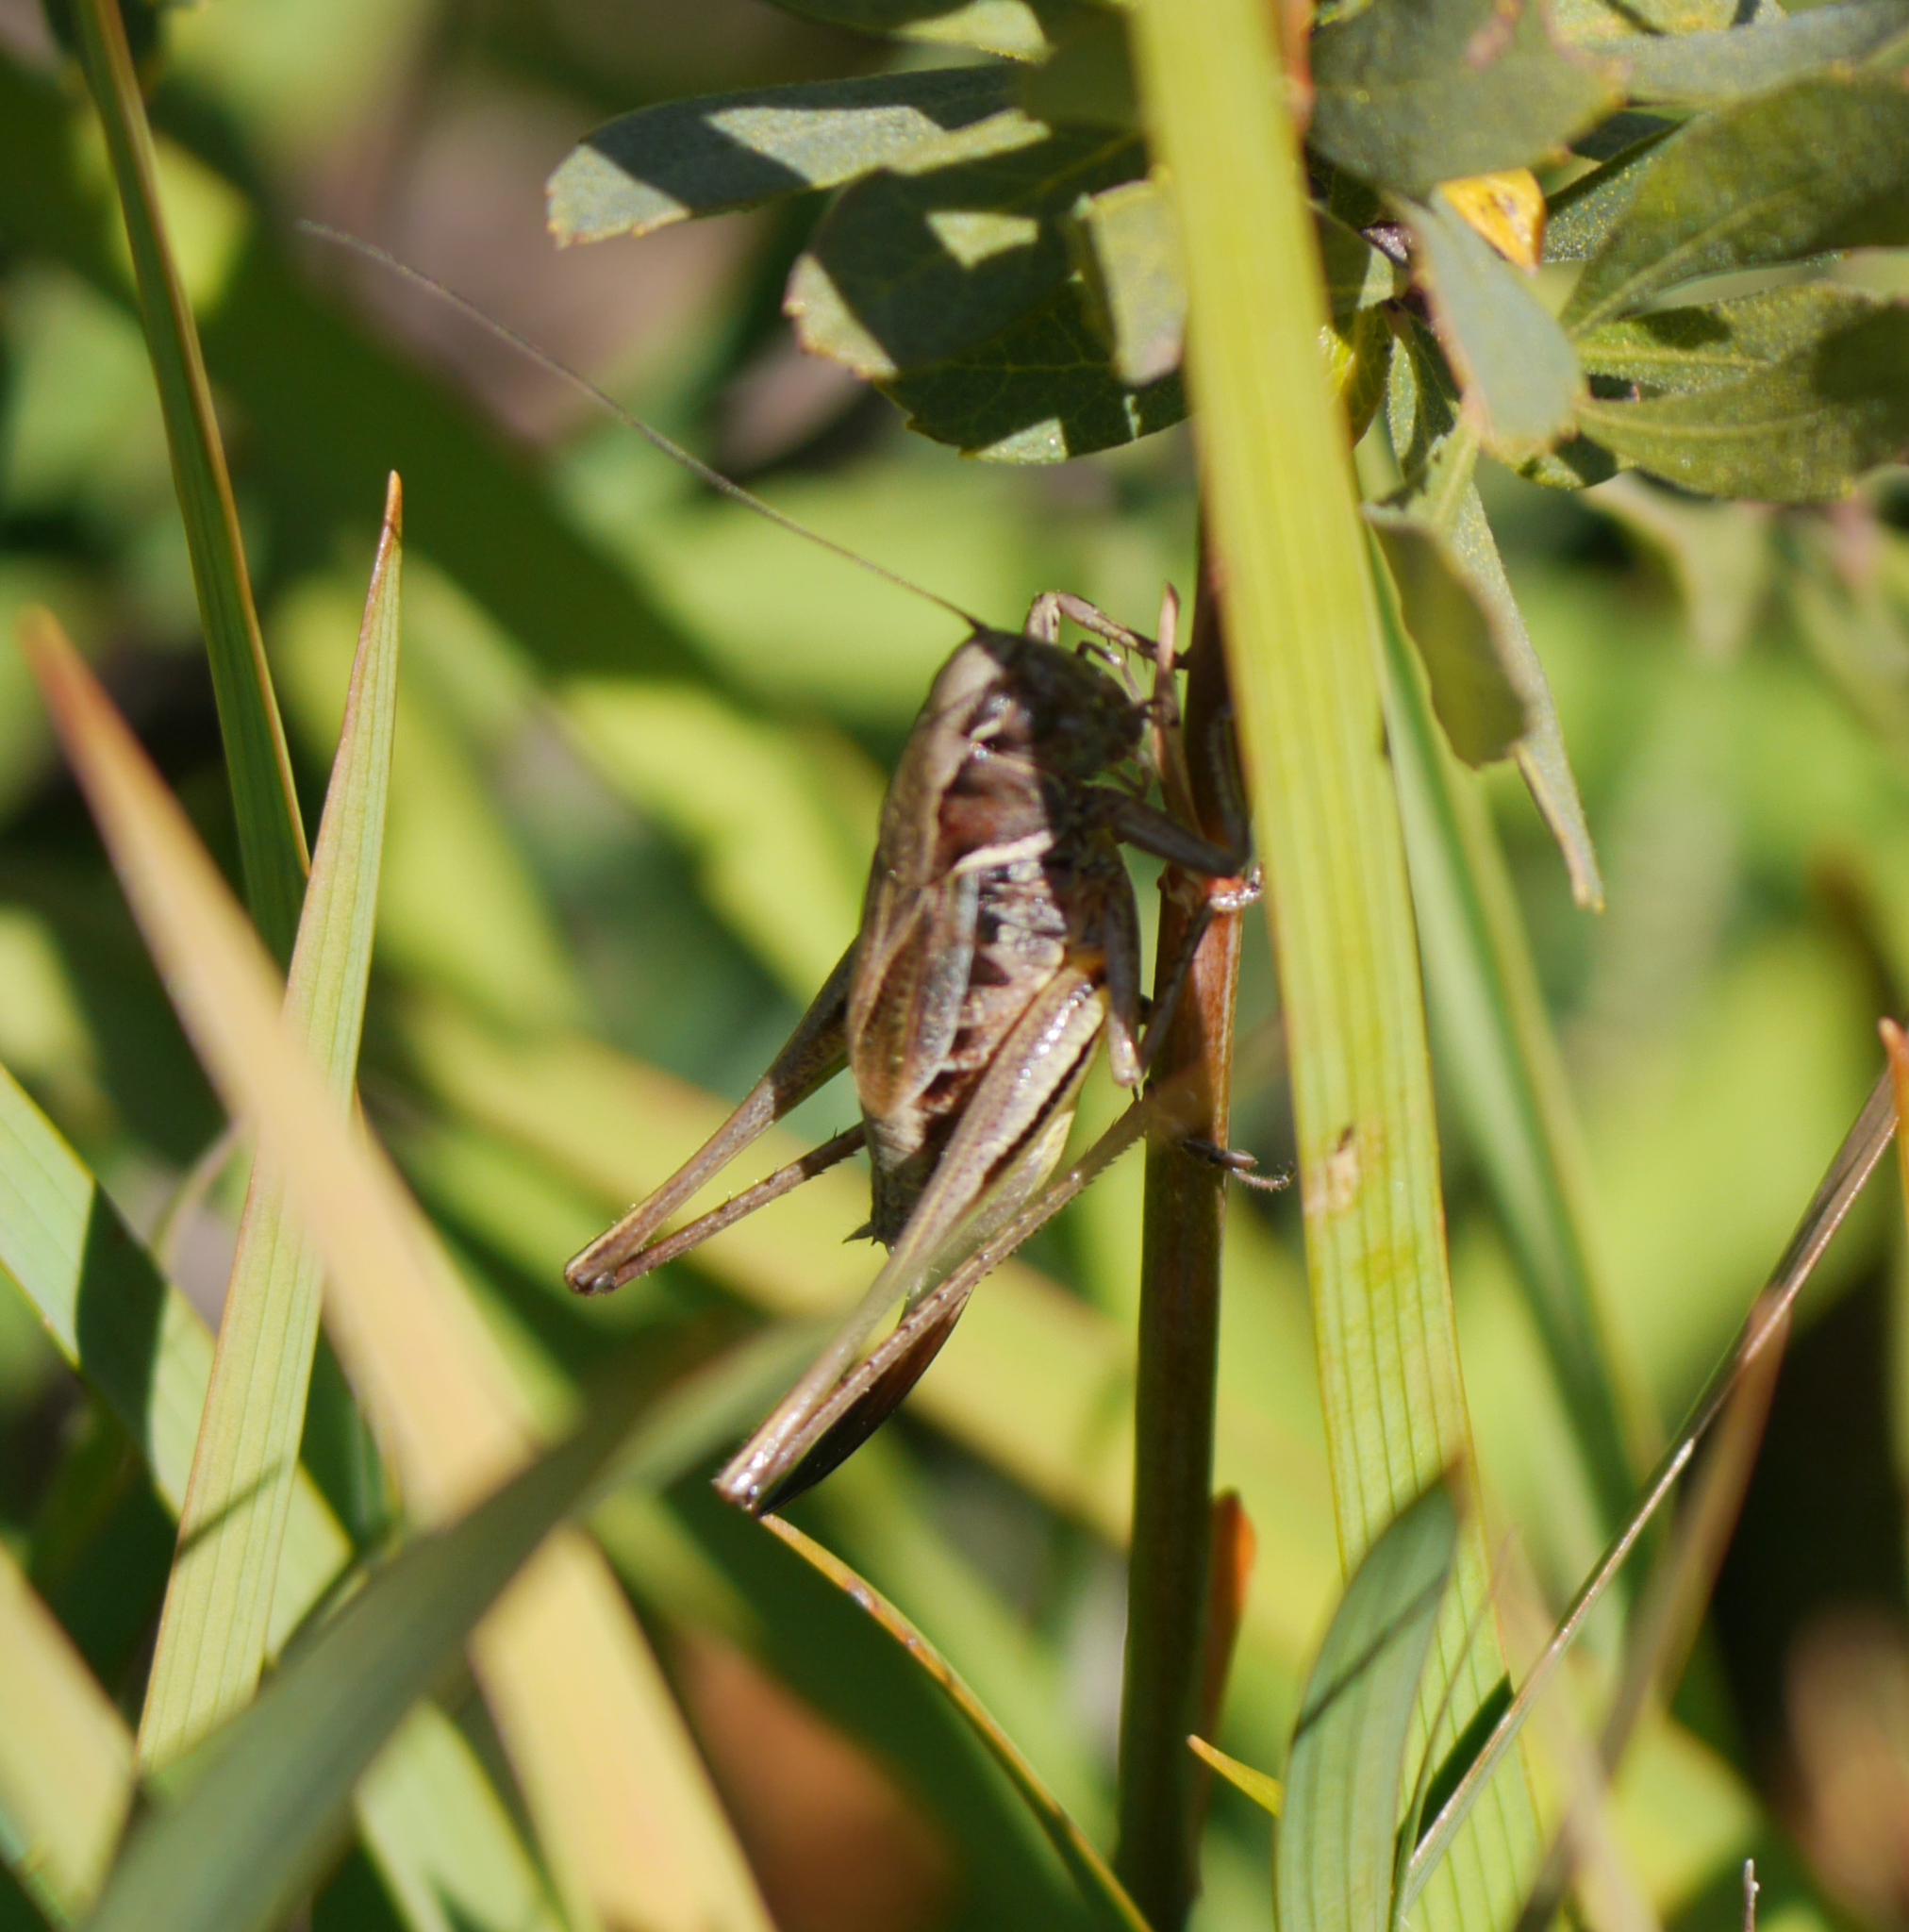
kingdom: Animalia
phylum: Arthropoda
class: Insecta
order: Orthoptera
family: Tettigoniidae
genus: Metrioptera
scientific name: Metrioptera brachyptera
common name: Bog bush-cricket
